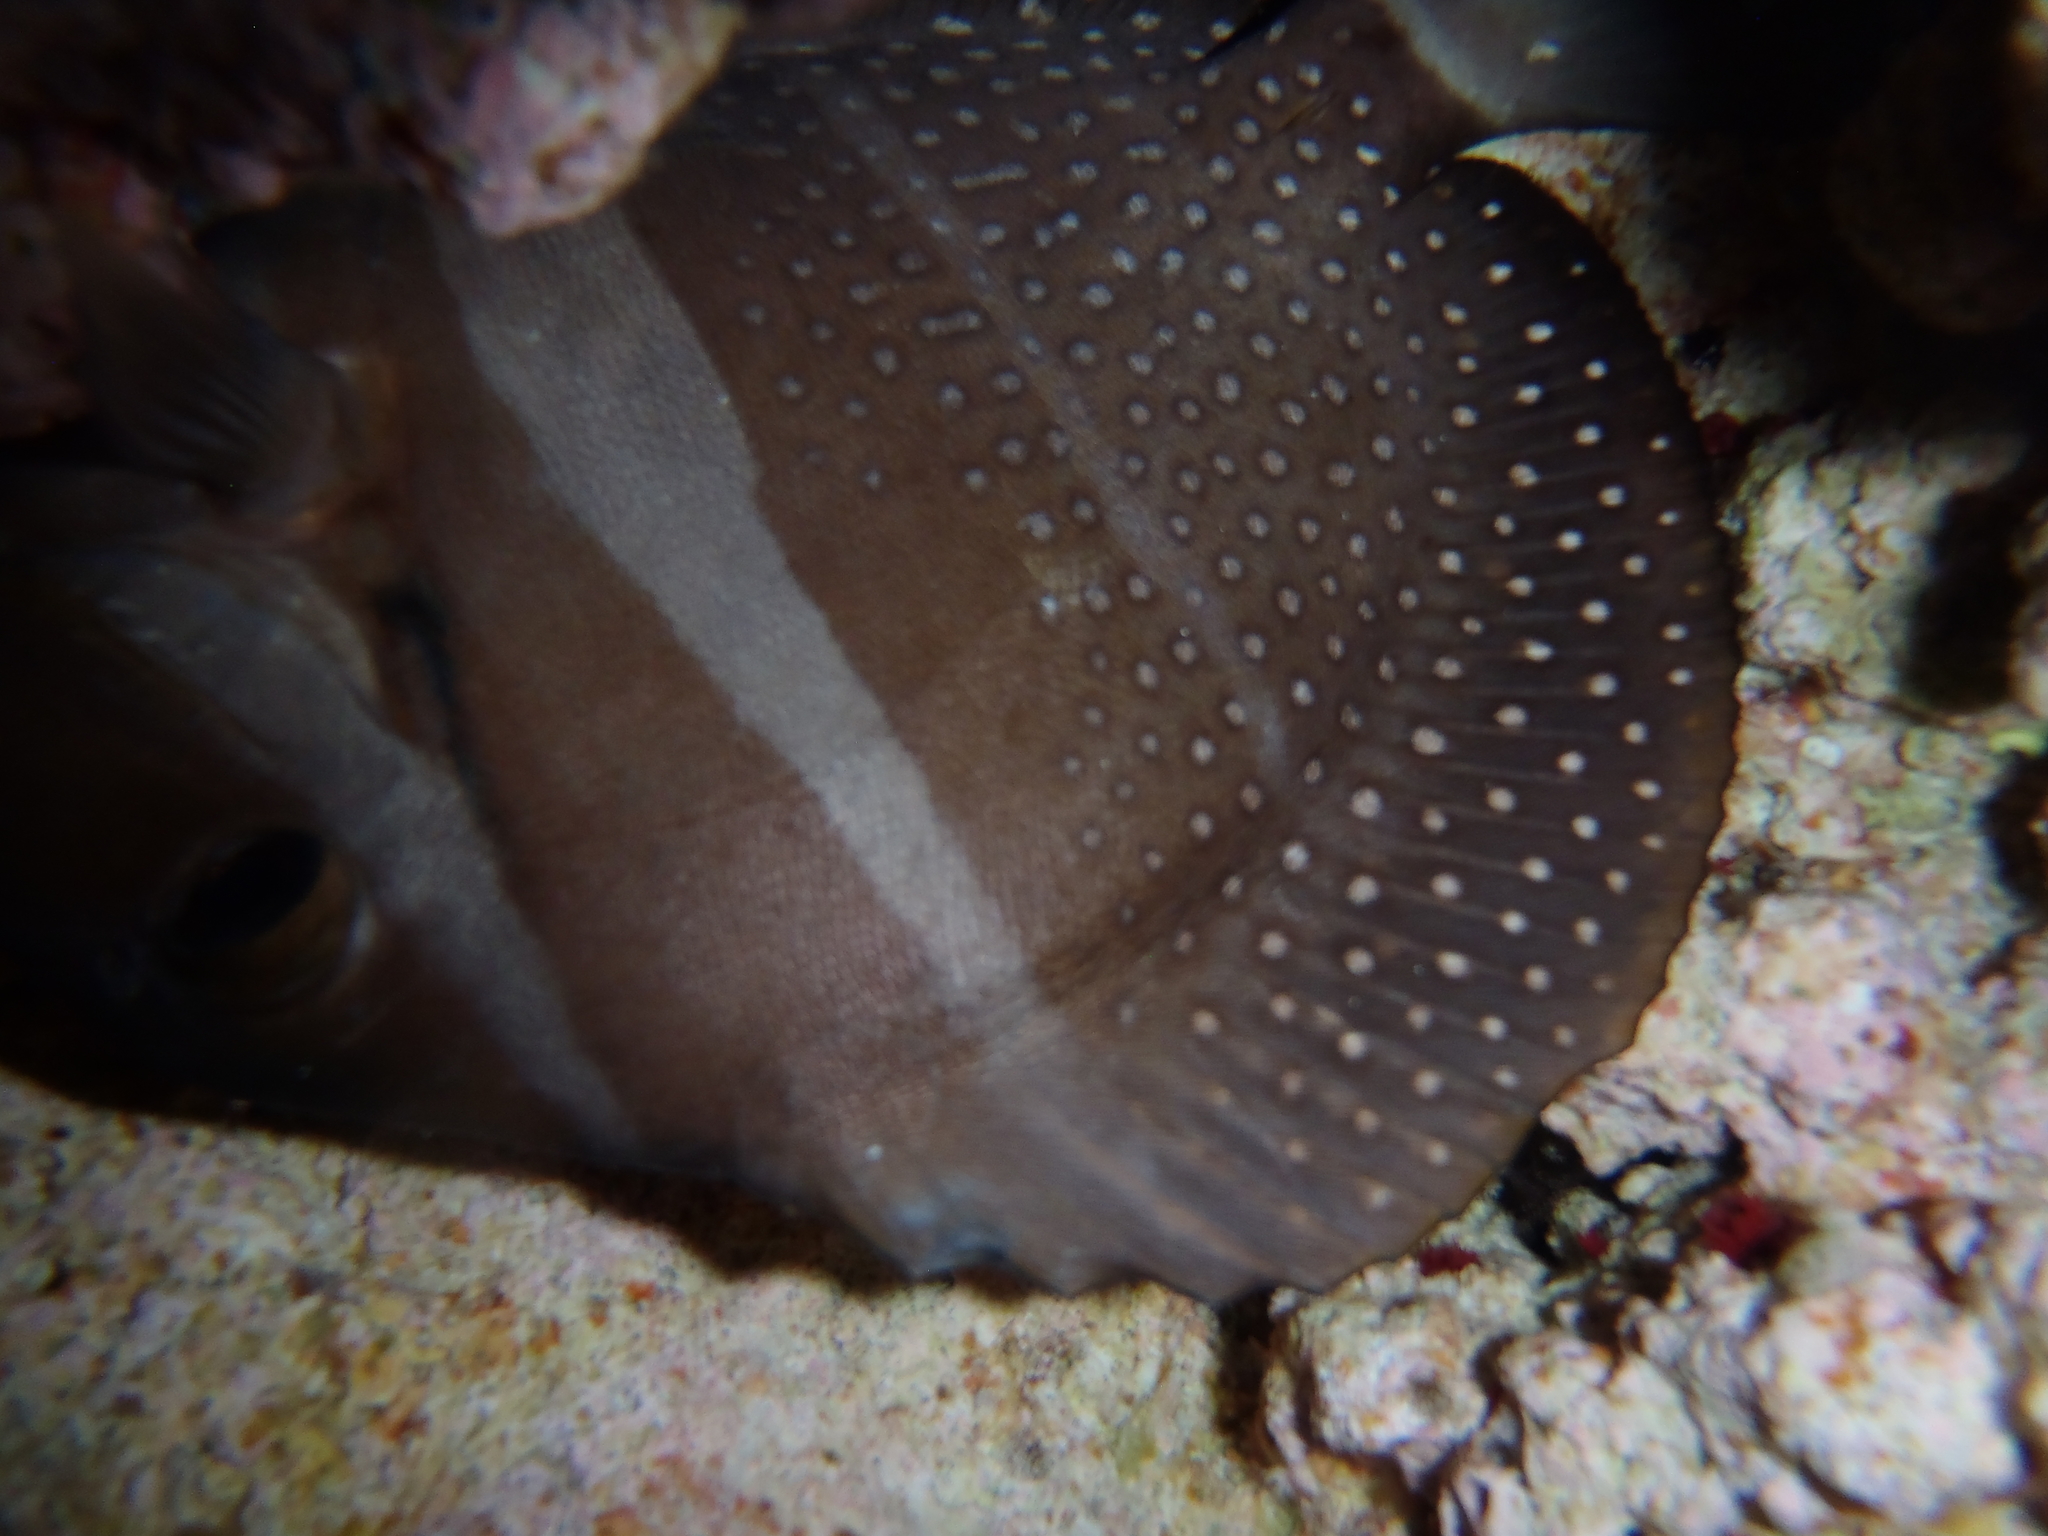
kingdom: Animalia
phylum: Chordata
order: Perciformes
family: Acanthuridae
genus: Acanthurus
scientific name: Acanthurus guttatus
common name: Whitespotted surgeonfish
